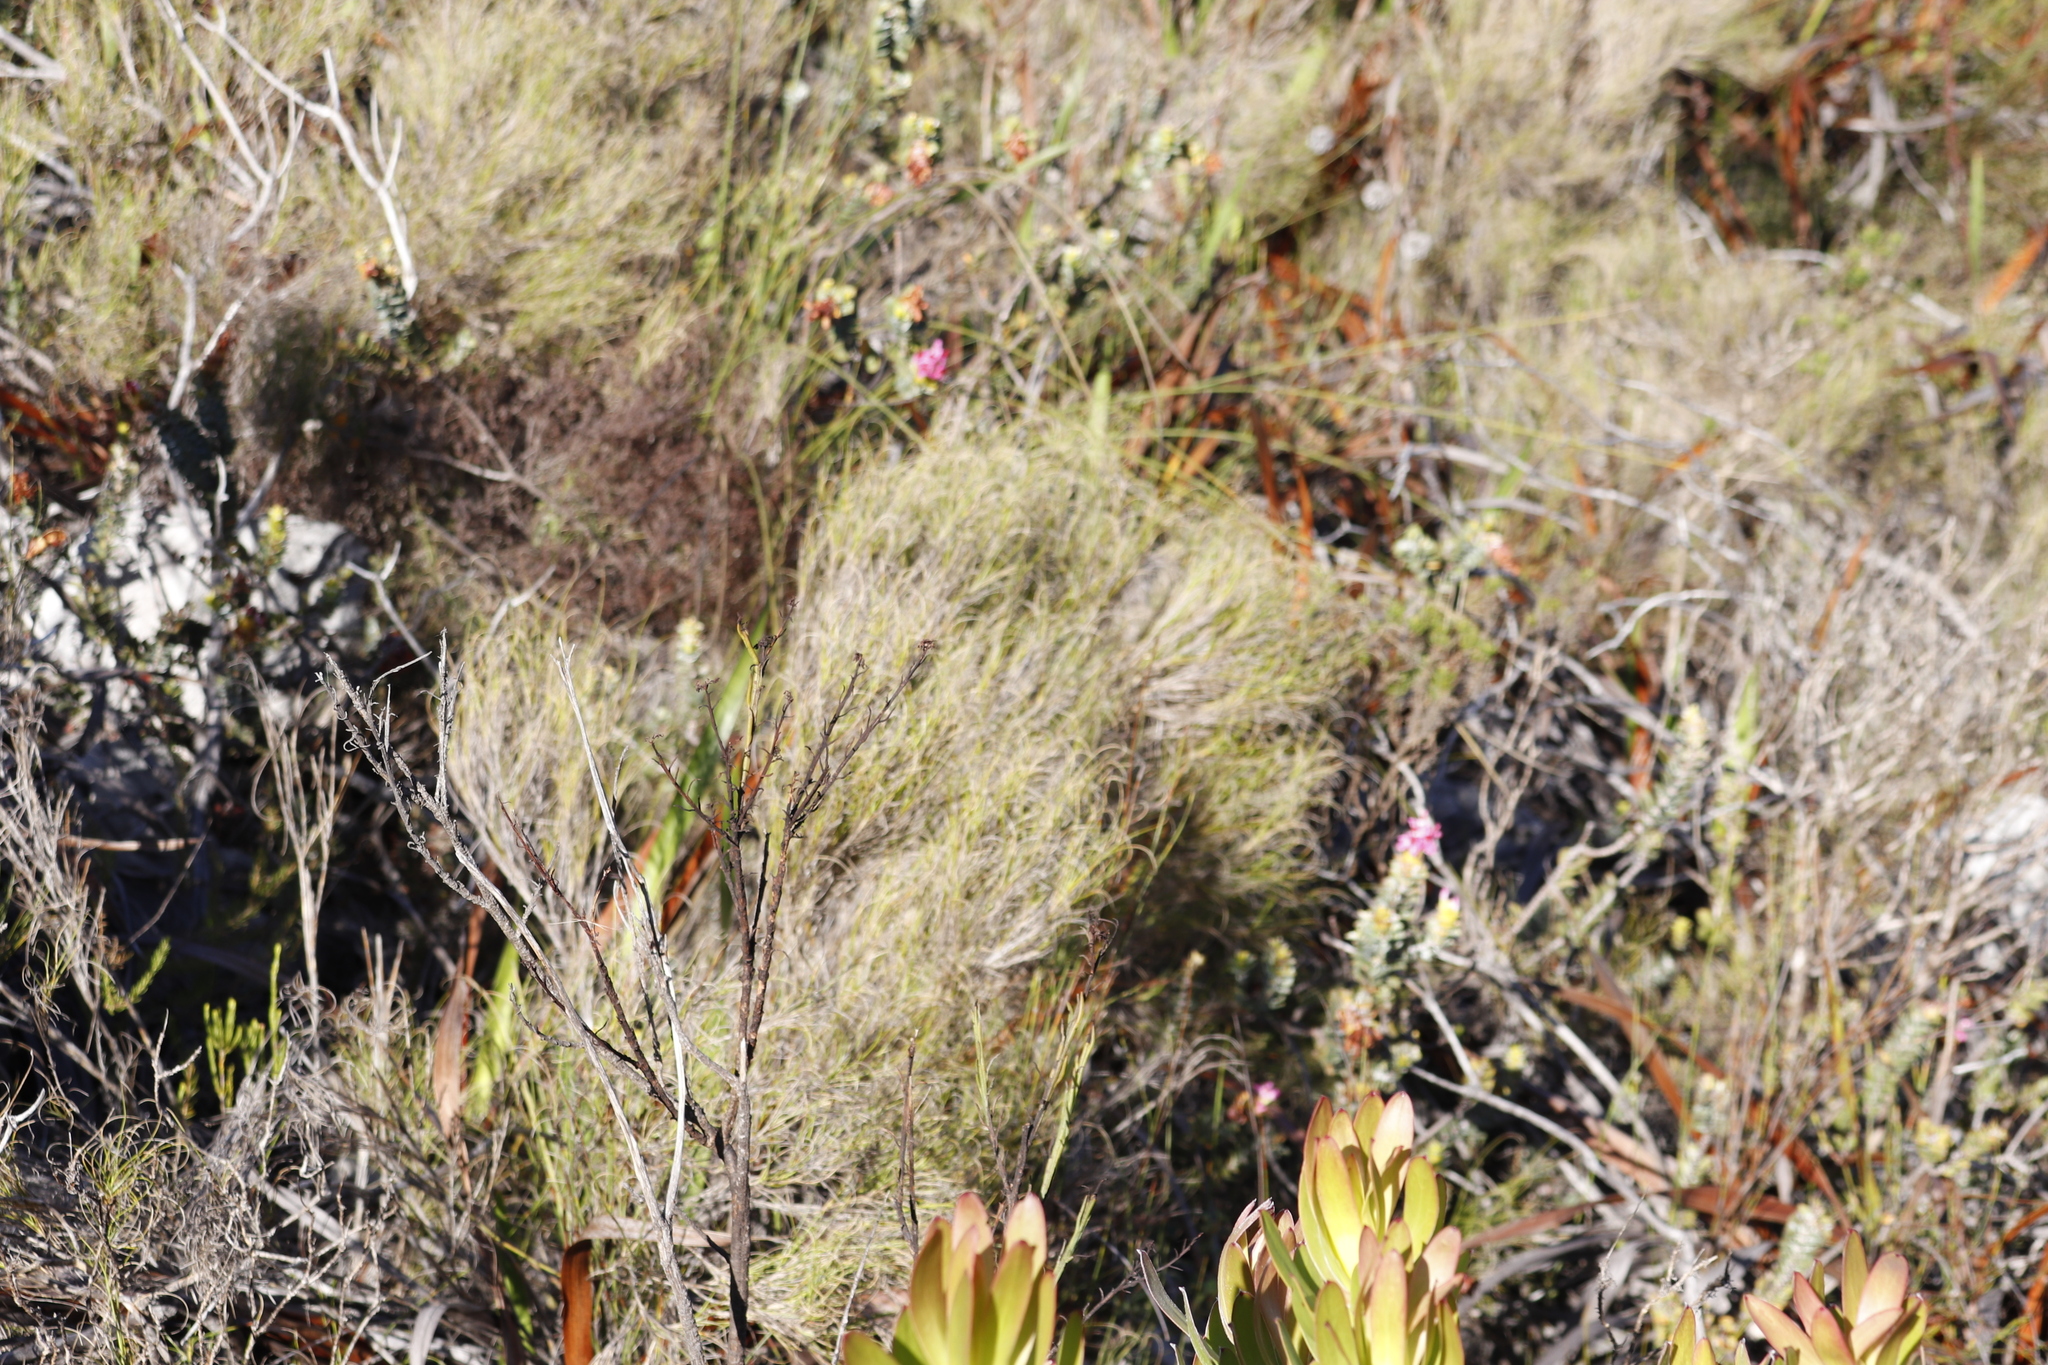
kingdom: Plantae
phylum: Tracheophyta
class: Liliopsida
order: Poales
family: Poaceae
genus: Pseudopentameris
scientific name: Pseudopentameris macrantha
